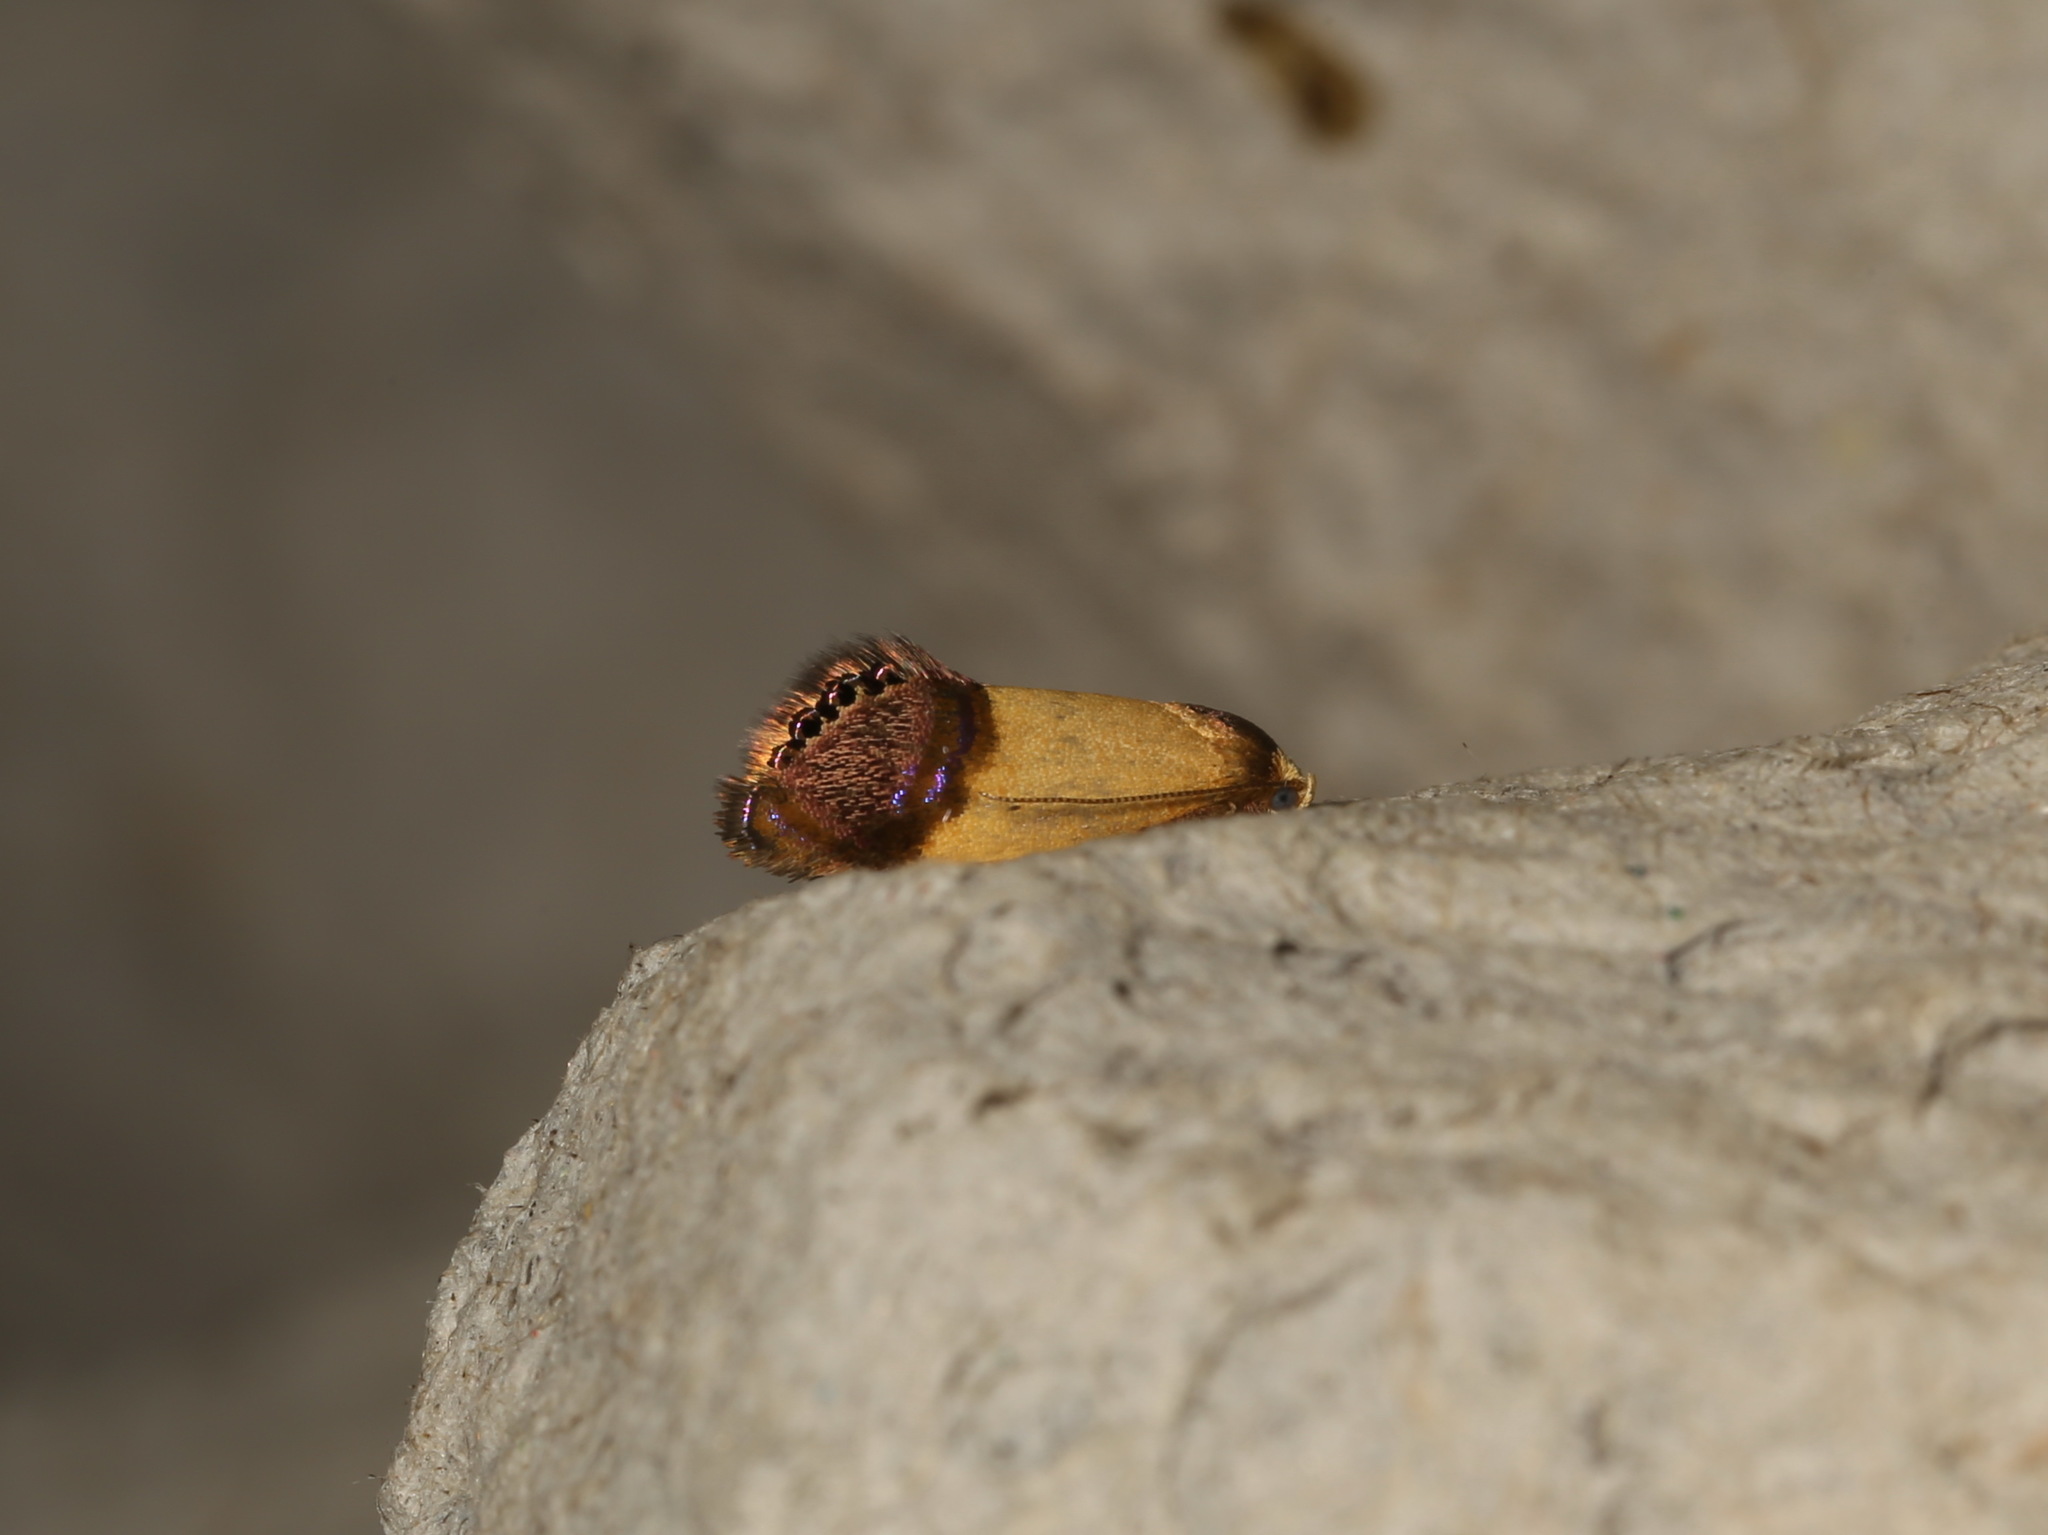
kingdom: Animalia
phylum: Arthropoda
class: Insecta
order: Lepidoptera
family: Depressariidae
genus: Eupselia
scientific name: Eupselia satrapella
